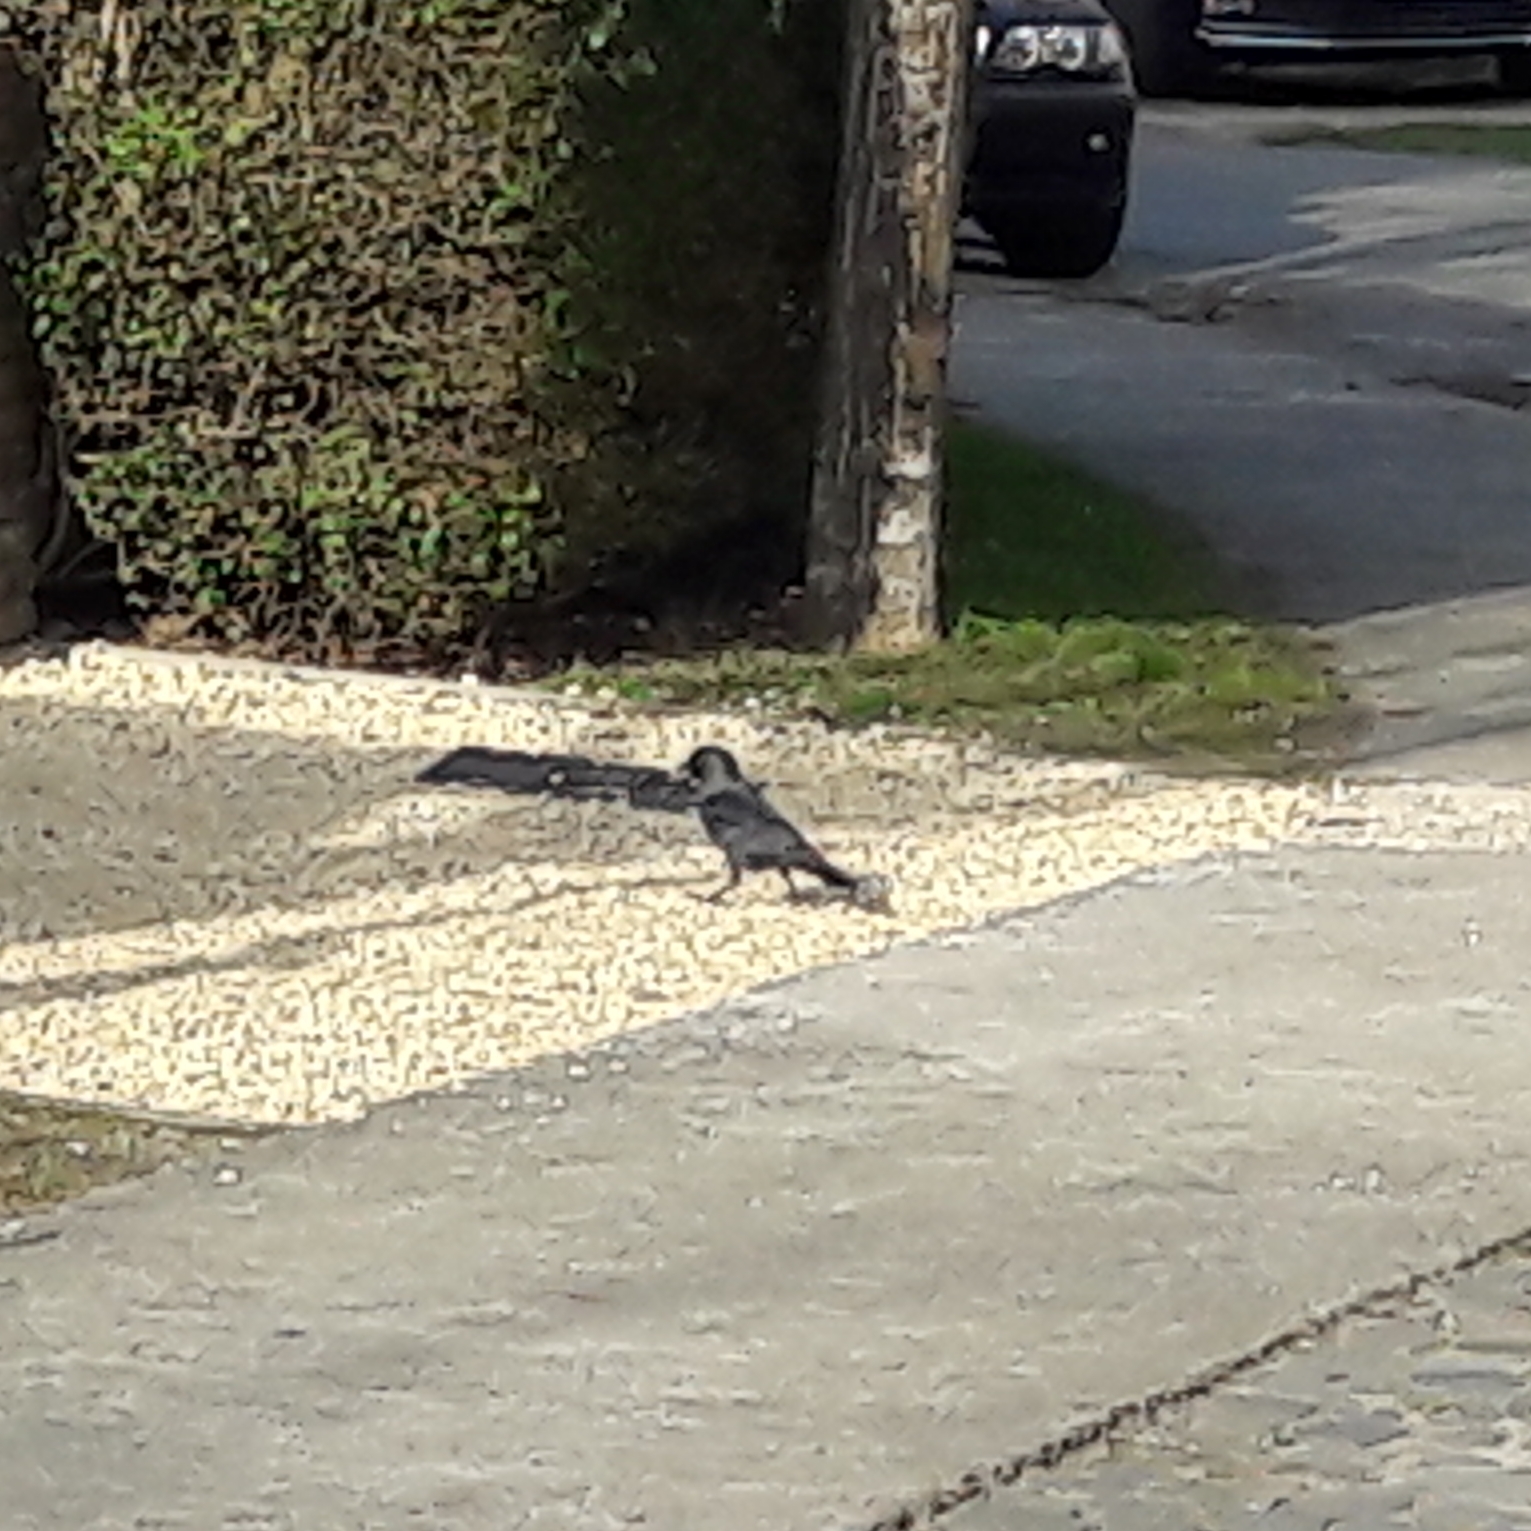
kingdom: Animalia
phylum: Chordata
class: Aves
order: Passeriformes
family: Corvidae
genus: Coloeus
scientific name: Coloeus monedula
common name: Western jackdaw
